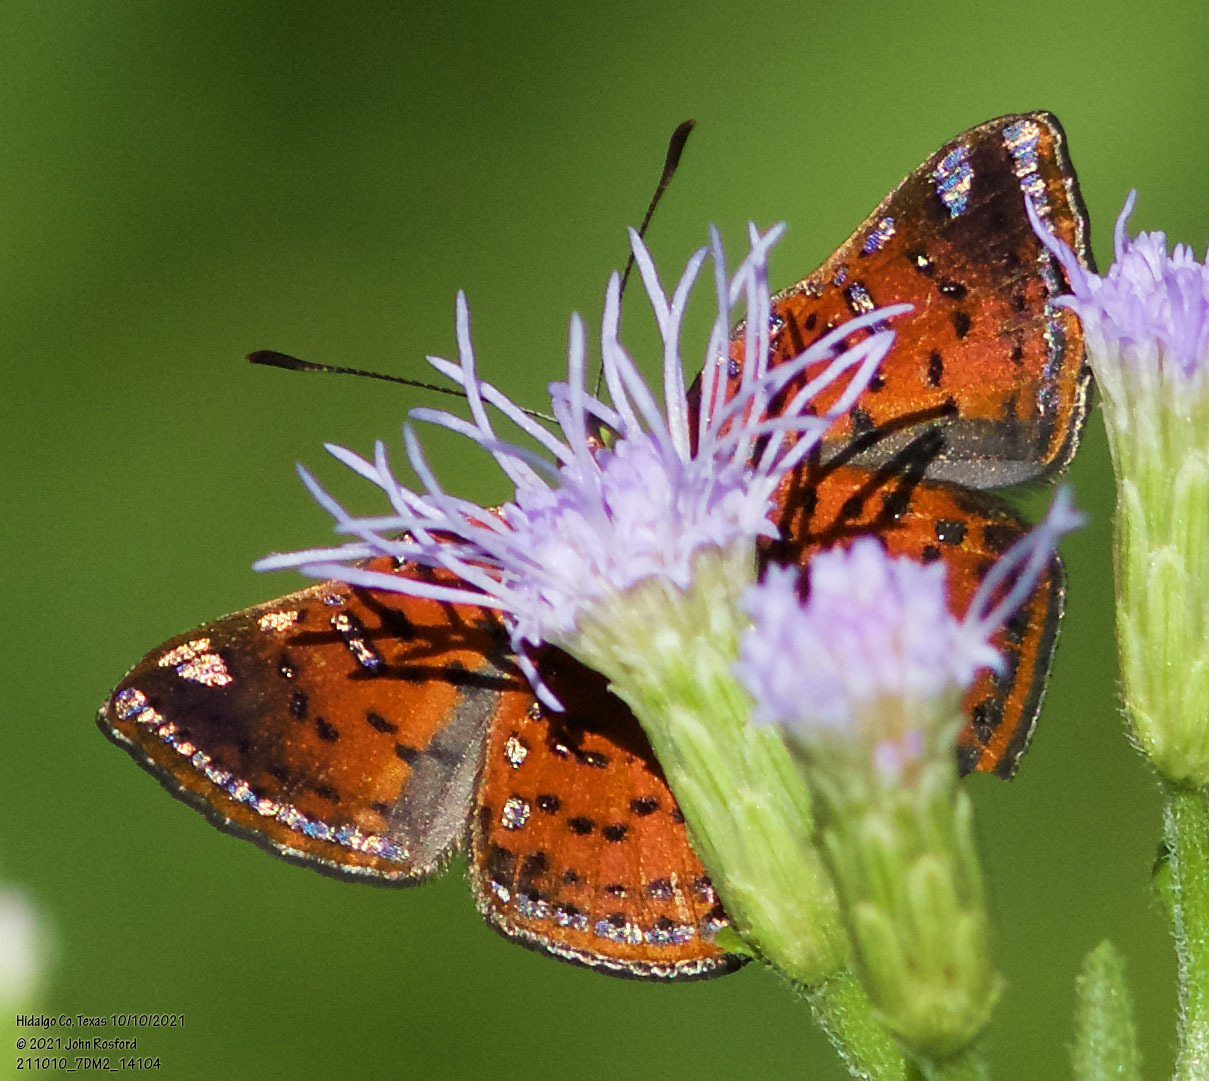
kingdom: Animalia
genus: Caria
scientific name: Caria ino
